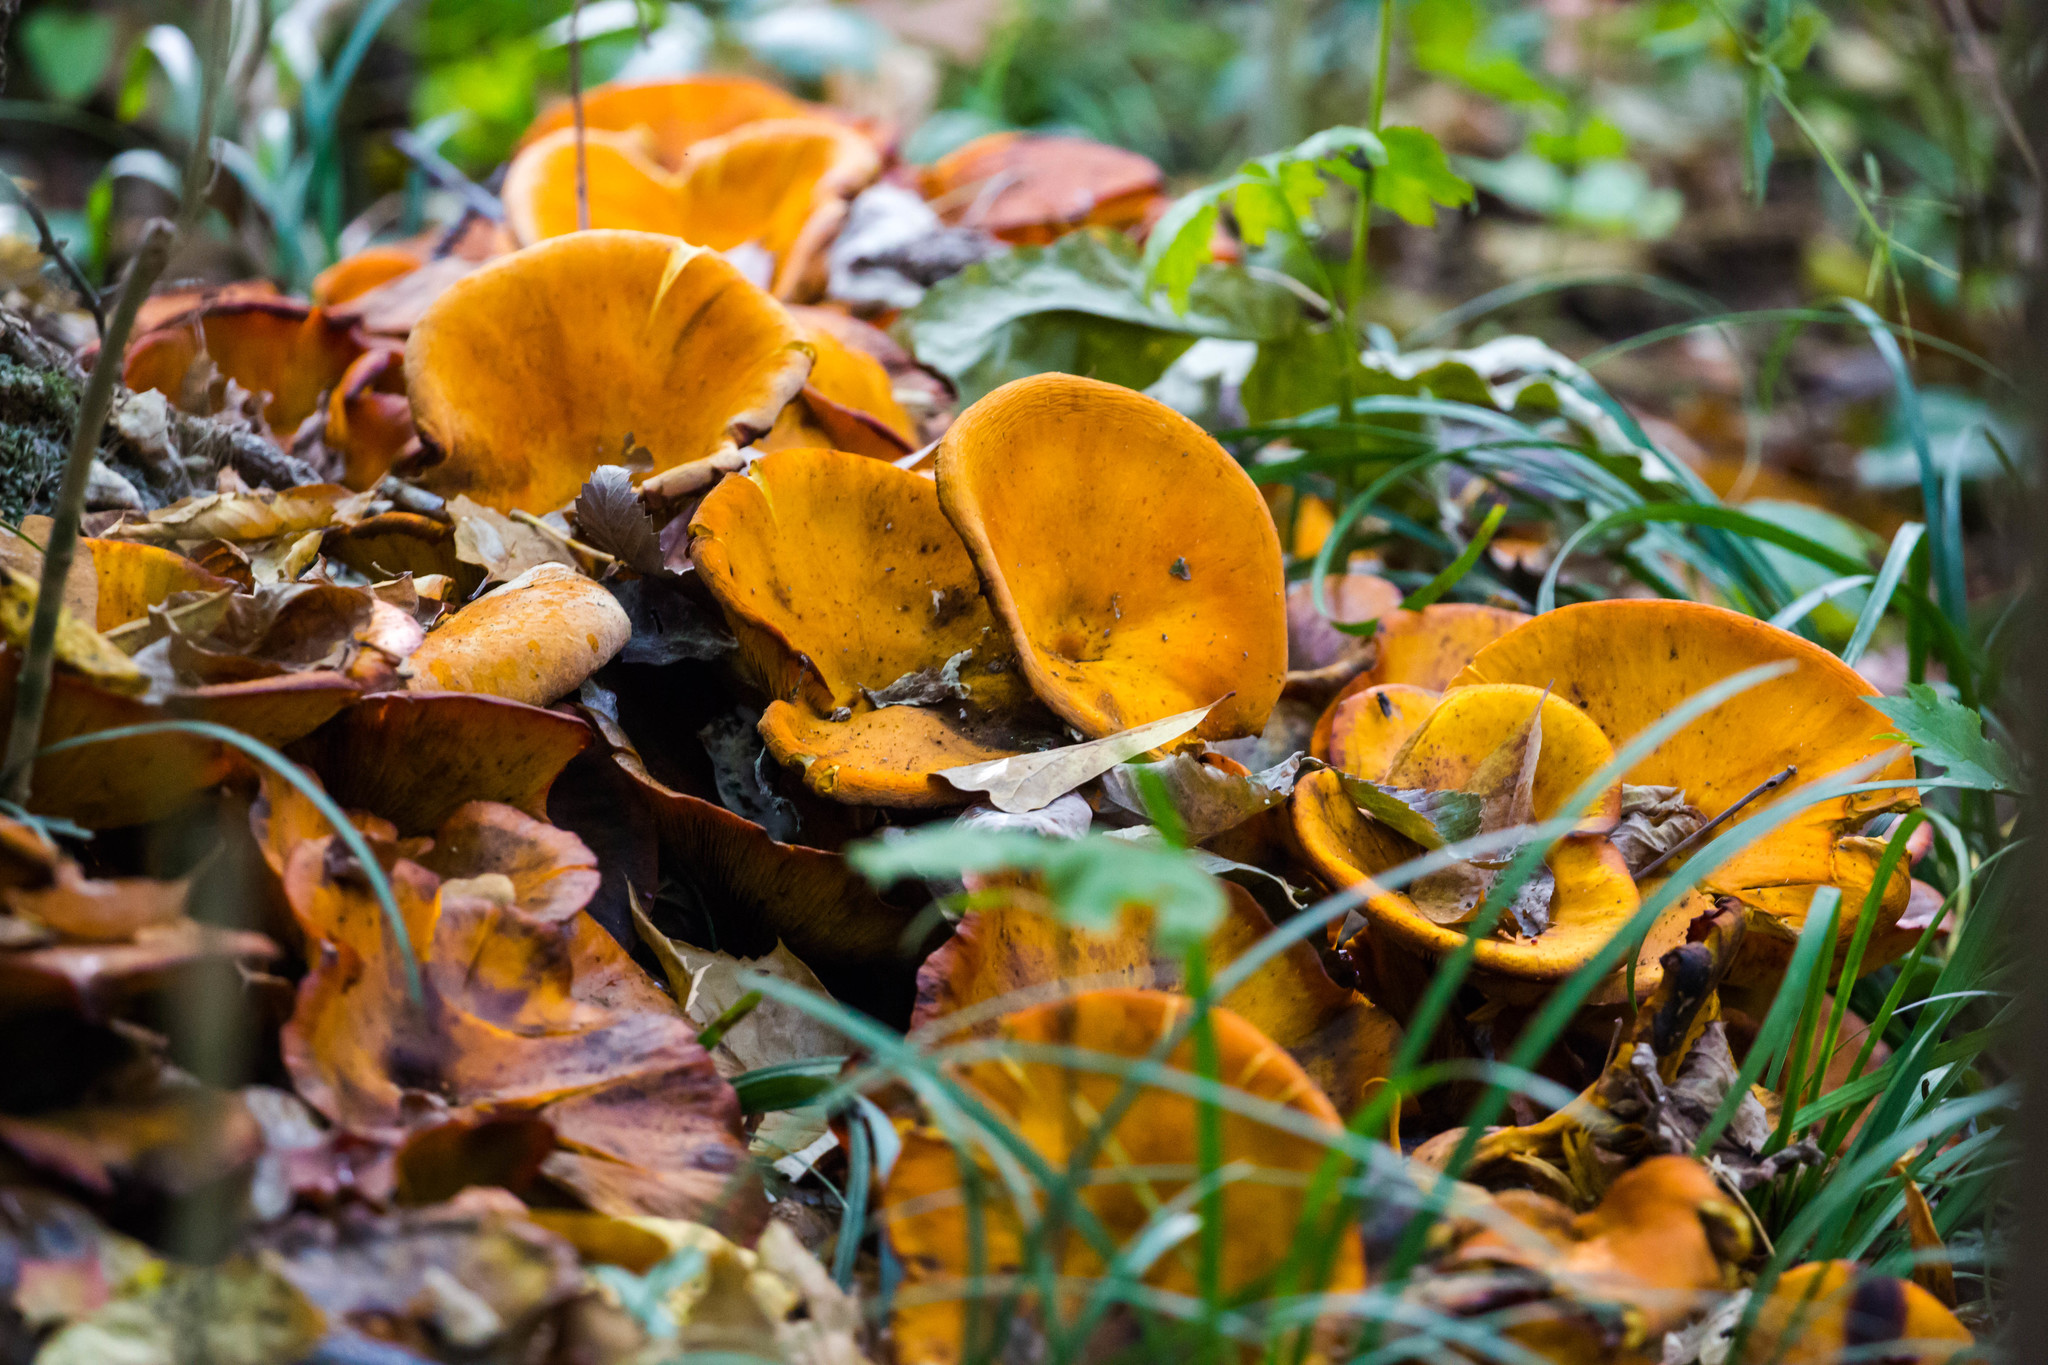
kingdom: Fungi
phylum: Basidiomycota
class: Agaricomycetes
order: Agaricales
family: Omphalotaceae
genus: Omphalotus
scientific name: Omphalotus illudens
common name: Jack o lantern
